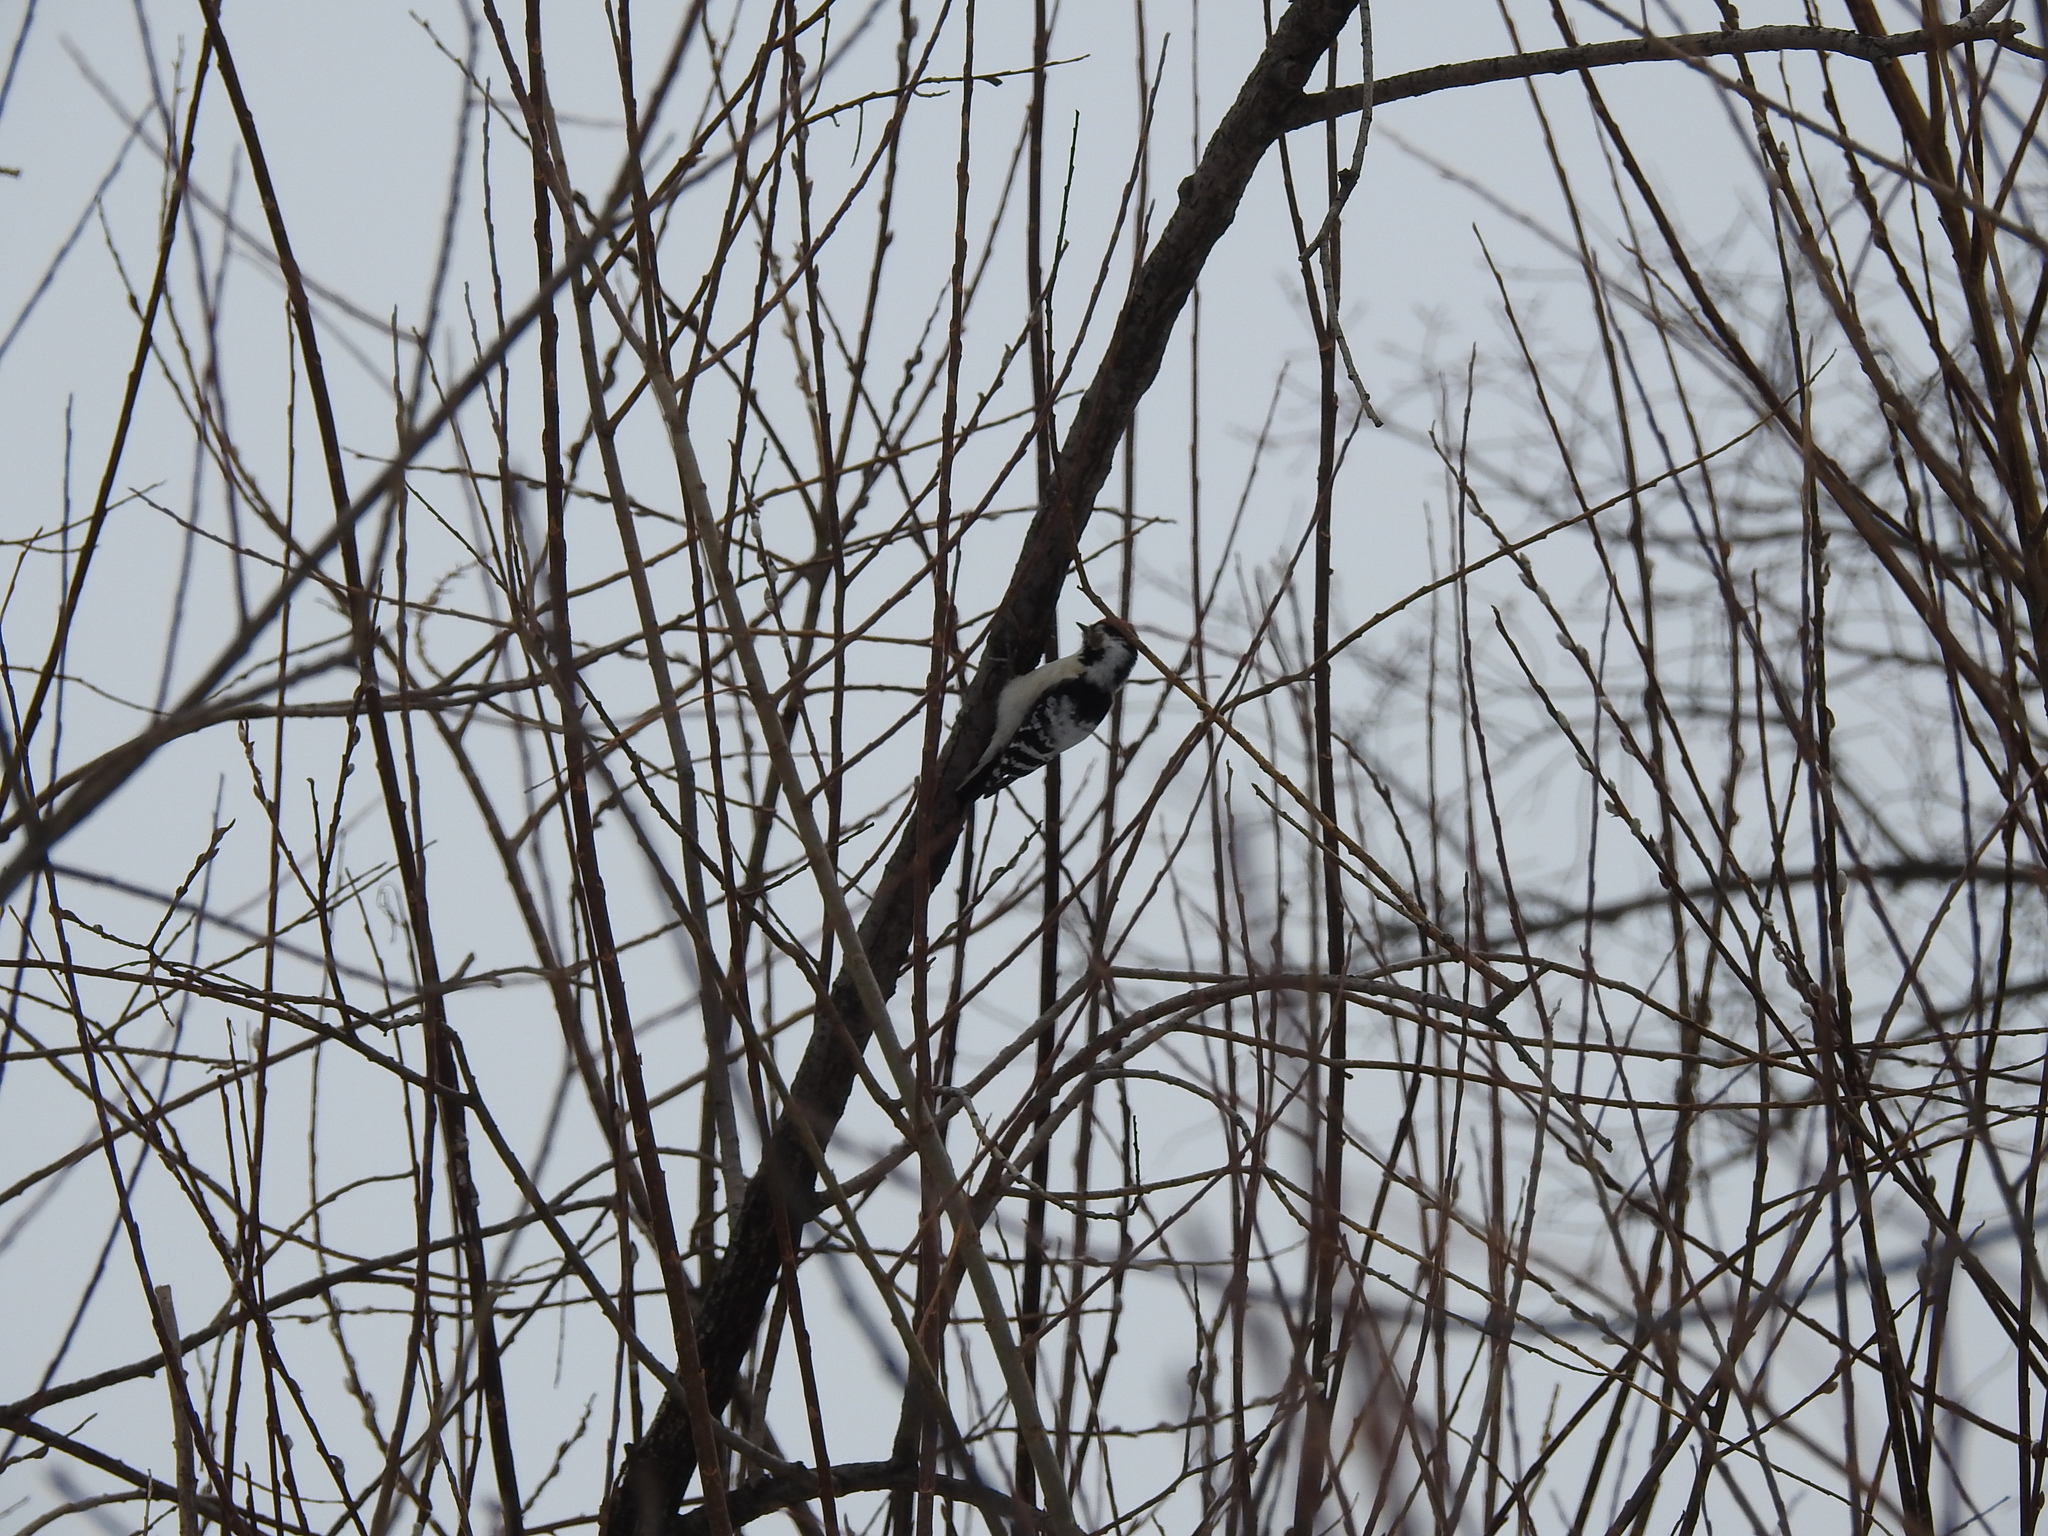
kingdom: Animalia
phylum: Chordata
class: Aves
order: Piciformes
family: Picidae
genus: Dryobates
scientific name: Dryobates minor
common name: Lesser spotted woodpecker
